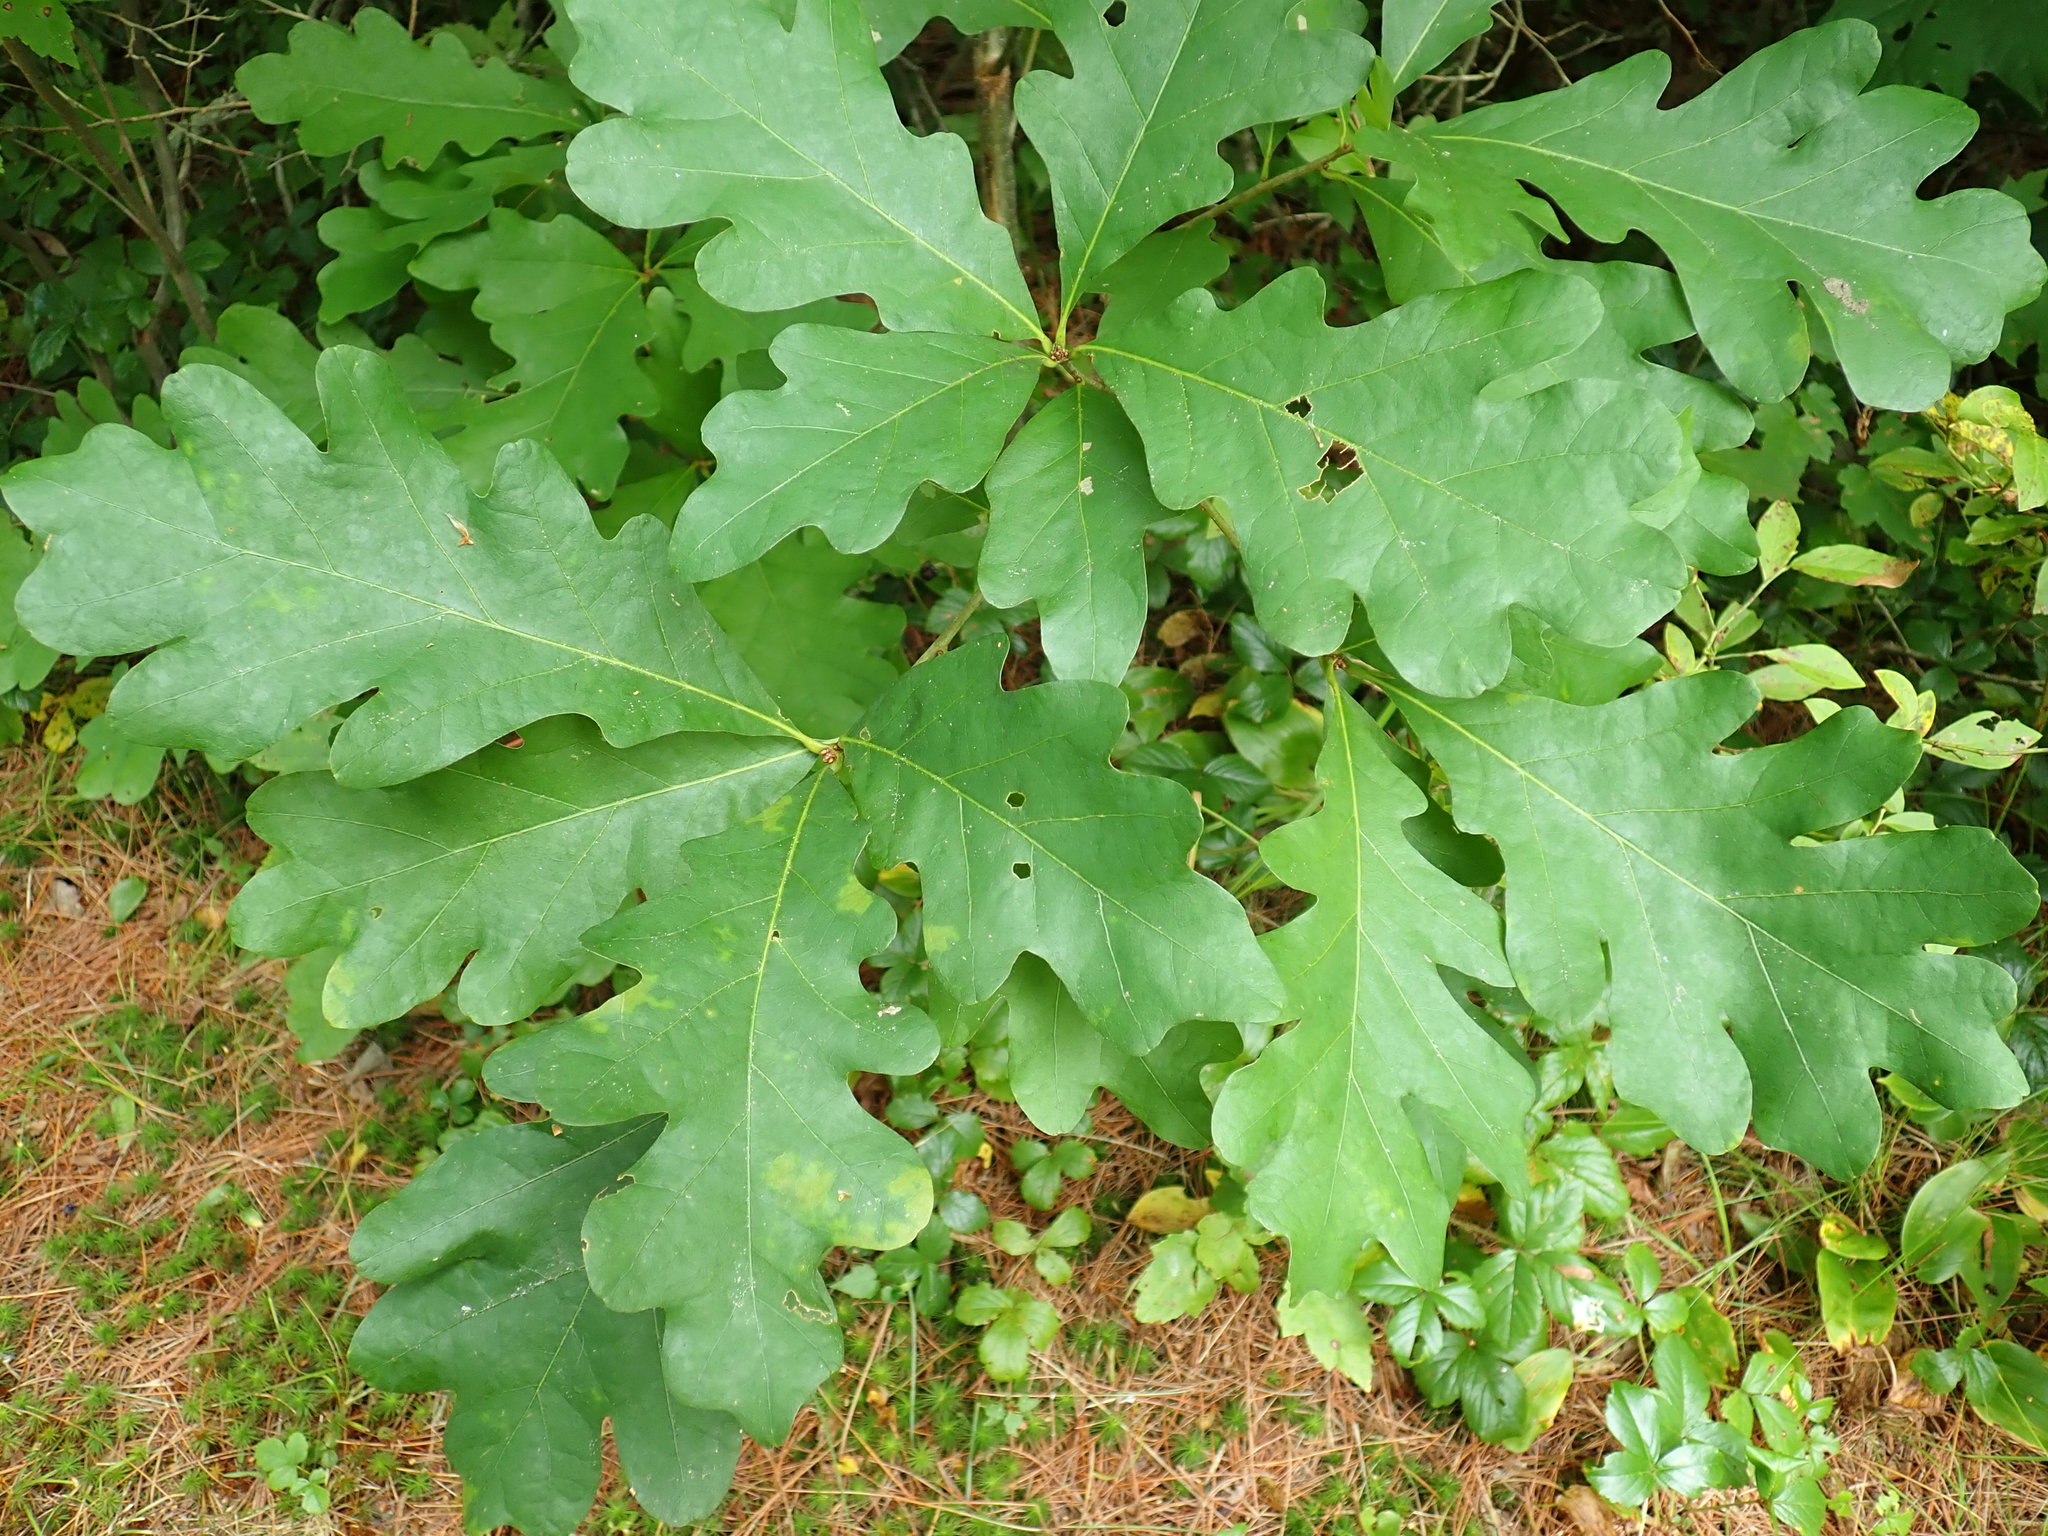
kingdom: Plantae
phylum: Tracheophyta
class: Magnoliopsida
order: Fagales
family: Fagaceae
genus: Quercus
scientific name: Quercus alba
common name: White oak
